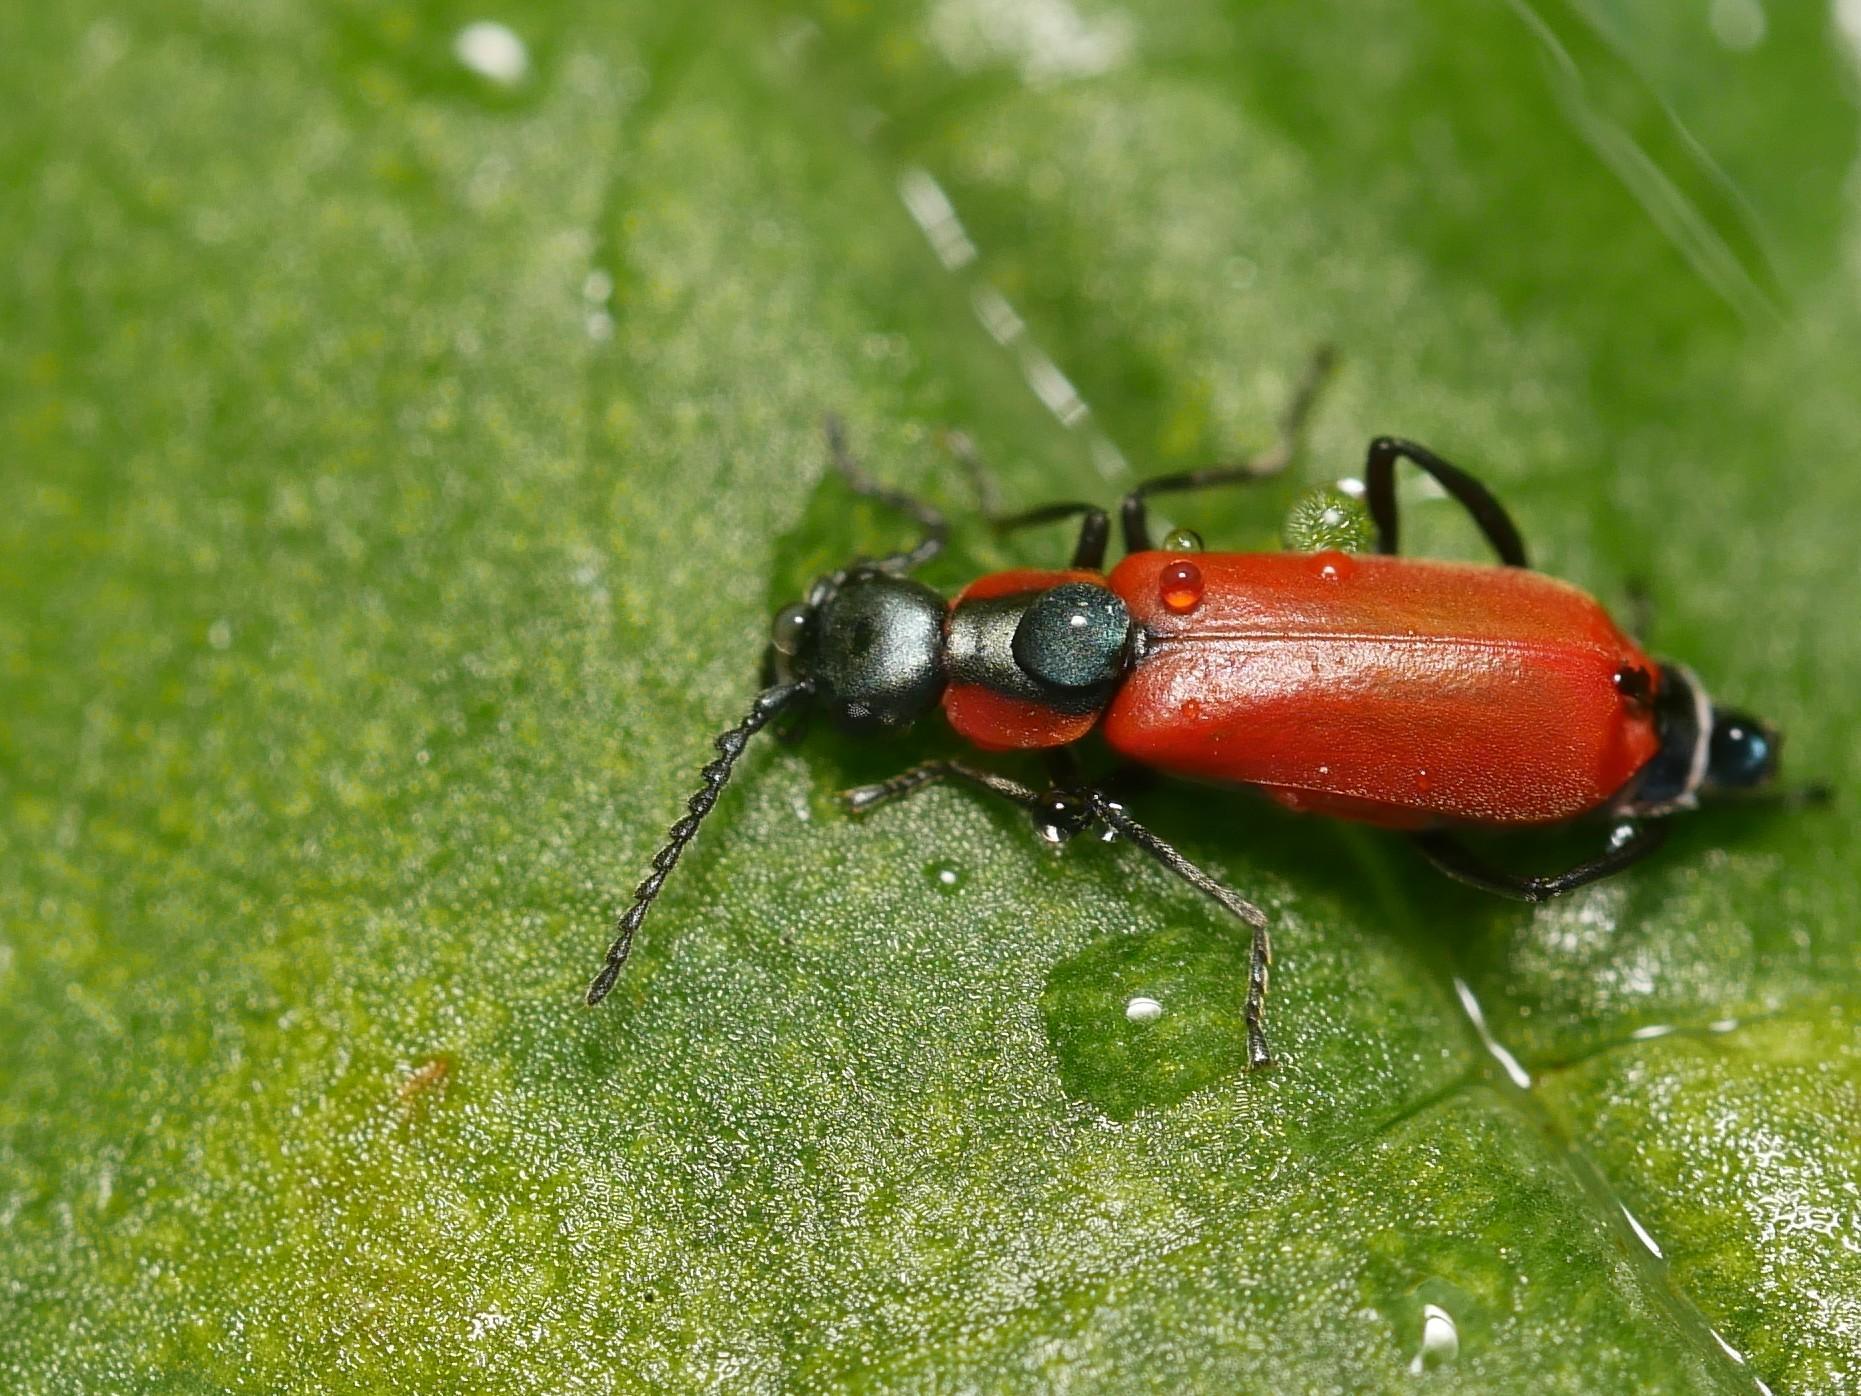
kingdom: Animalia
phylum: Arthropoda
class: Insecta
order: Coleoptera
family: Melyridae
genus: Anthocomus
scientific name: Anthocomus rufus
